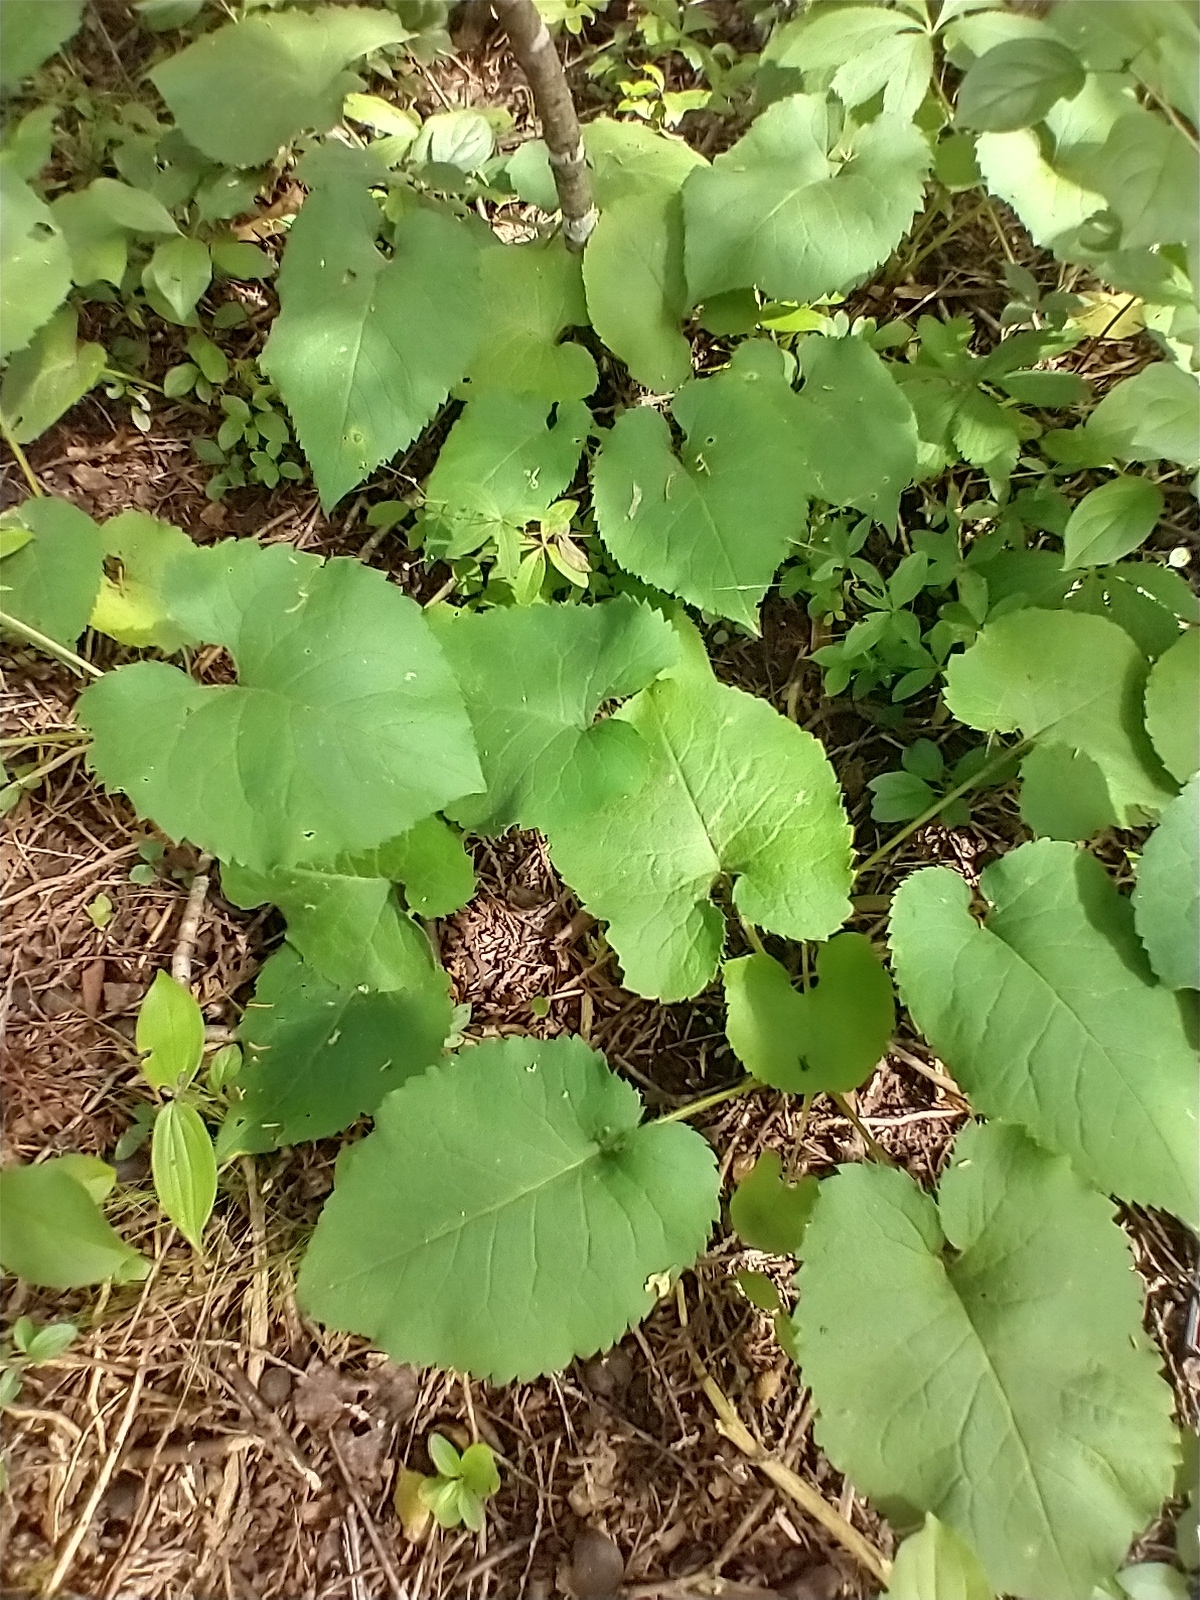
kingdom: Plantae
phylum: Tracheophyta
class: Magnoliopsida
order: Asterales
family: Asteraceae
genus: Eurybia
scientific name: Eurybia macrophylla
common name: Big-leaved aster
